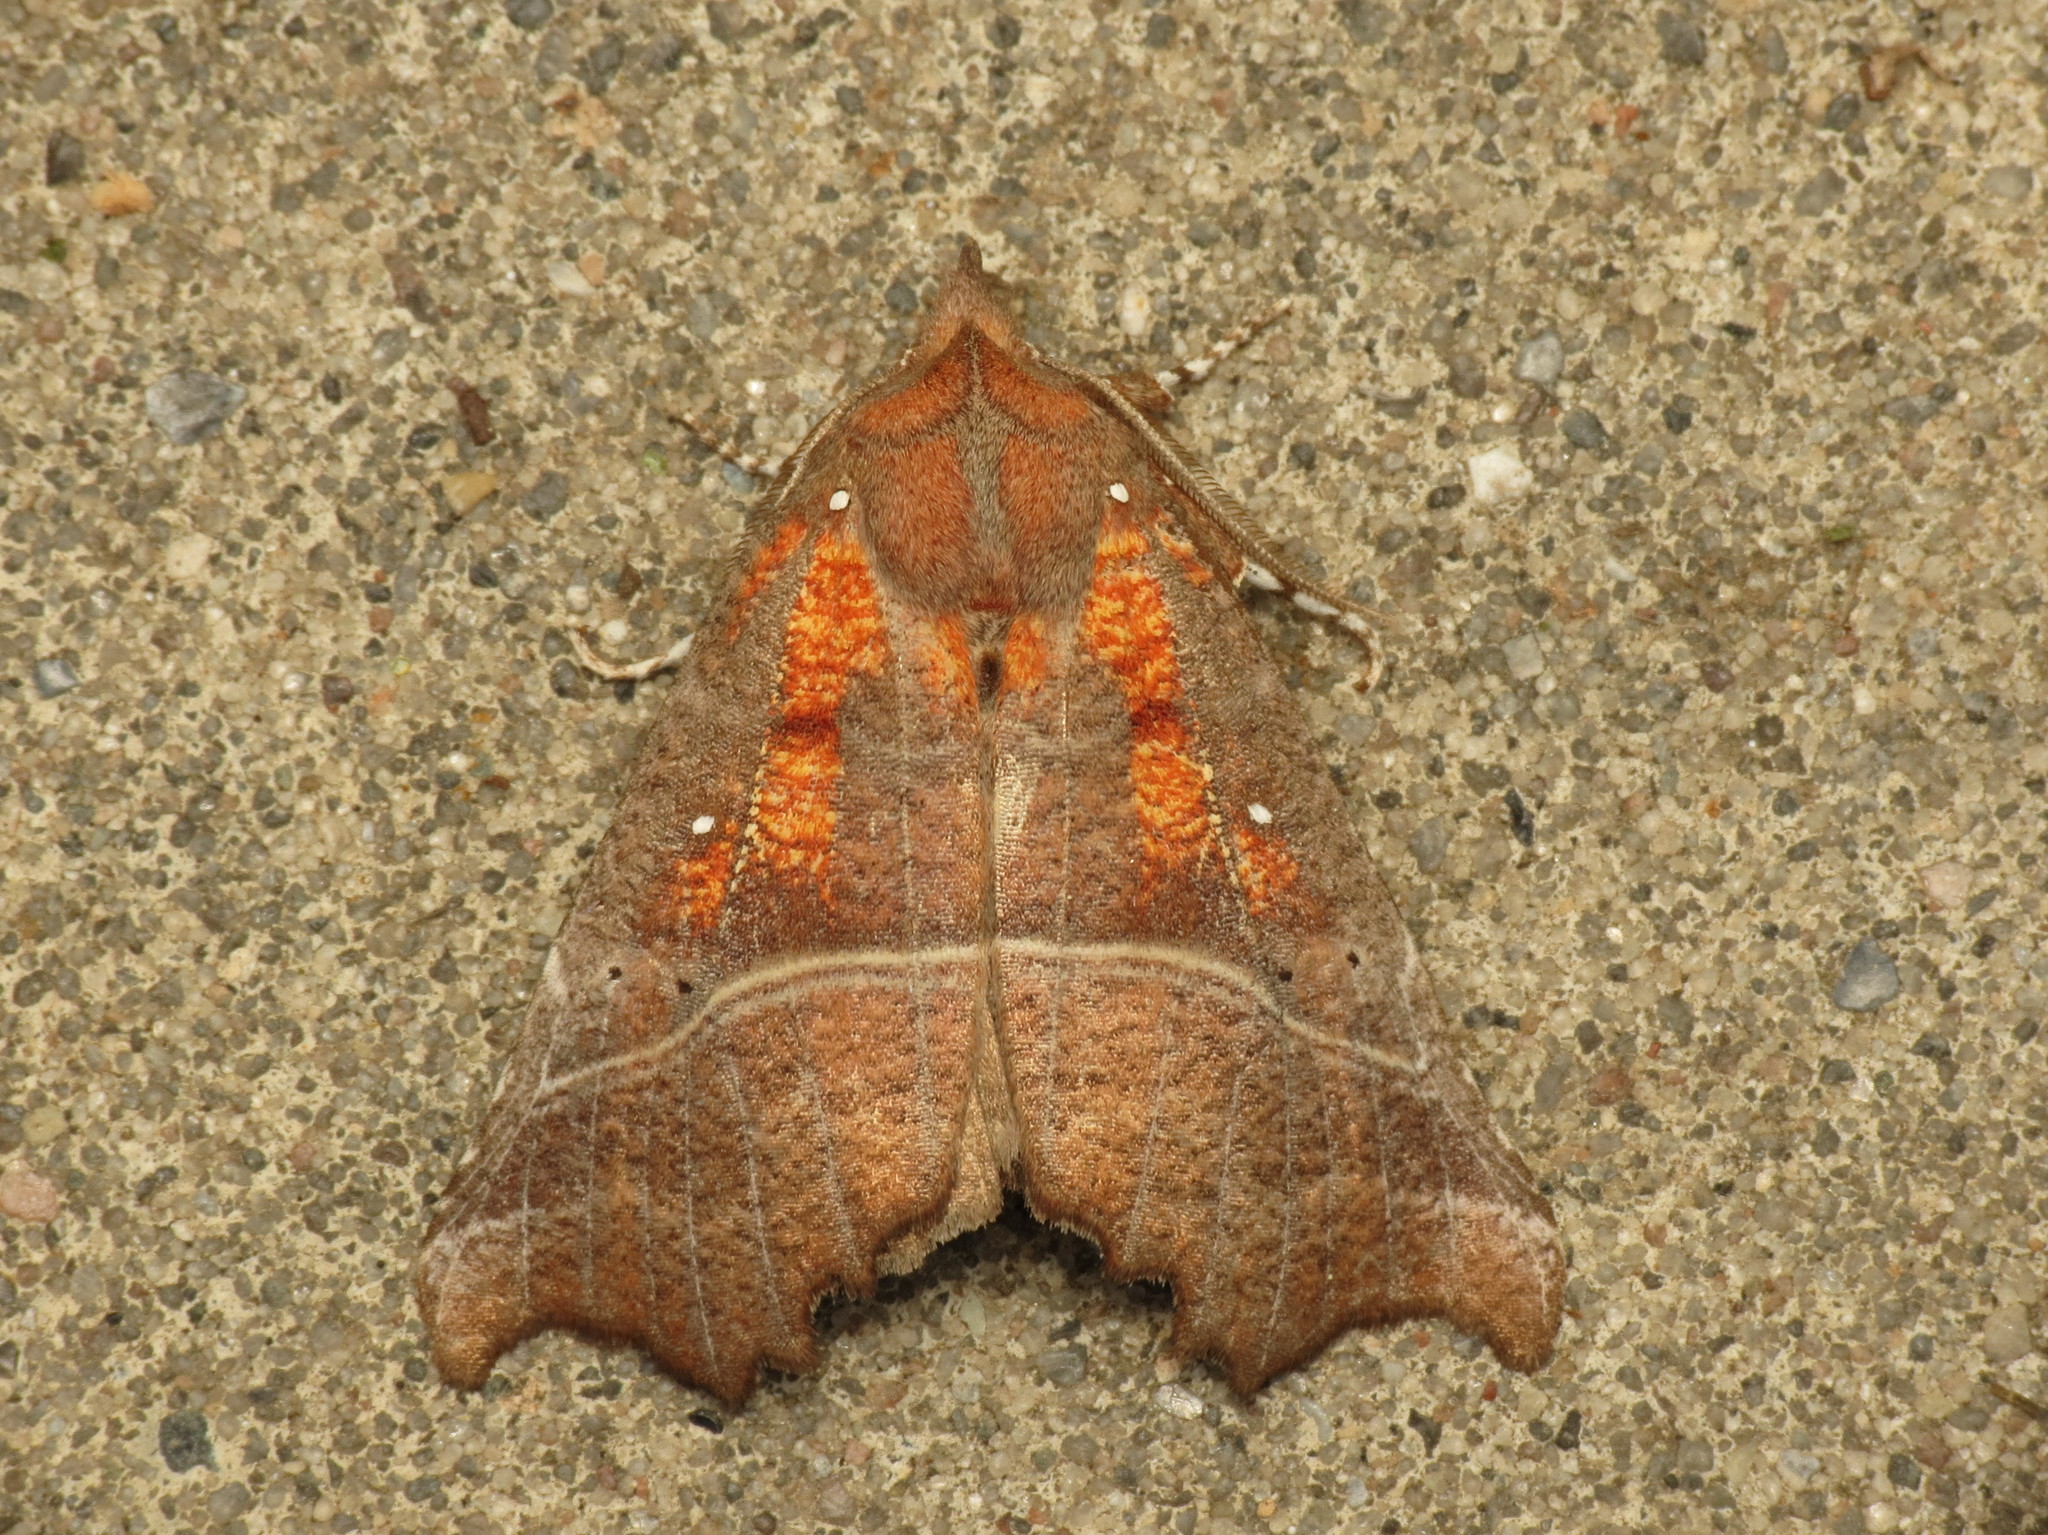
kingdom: Animalia
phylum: Arthropoda
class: Insecta
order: Lepidoptera
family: Erebidae
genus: Scoliopteryx
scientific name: Scoliopteryx libatrix
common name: Herald
